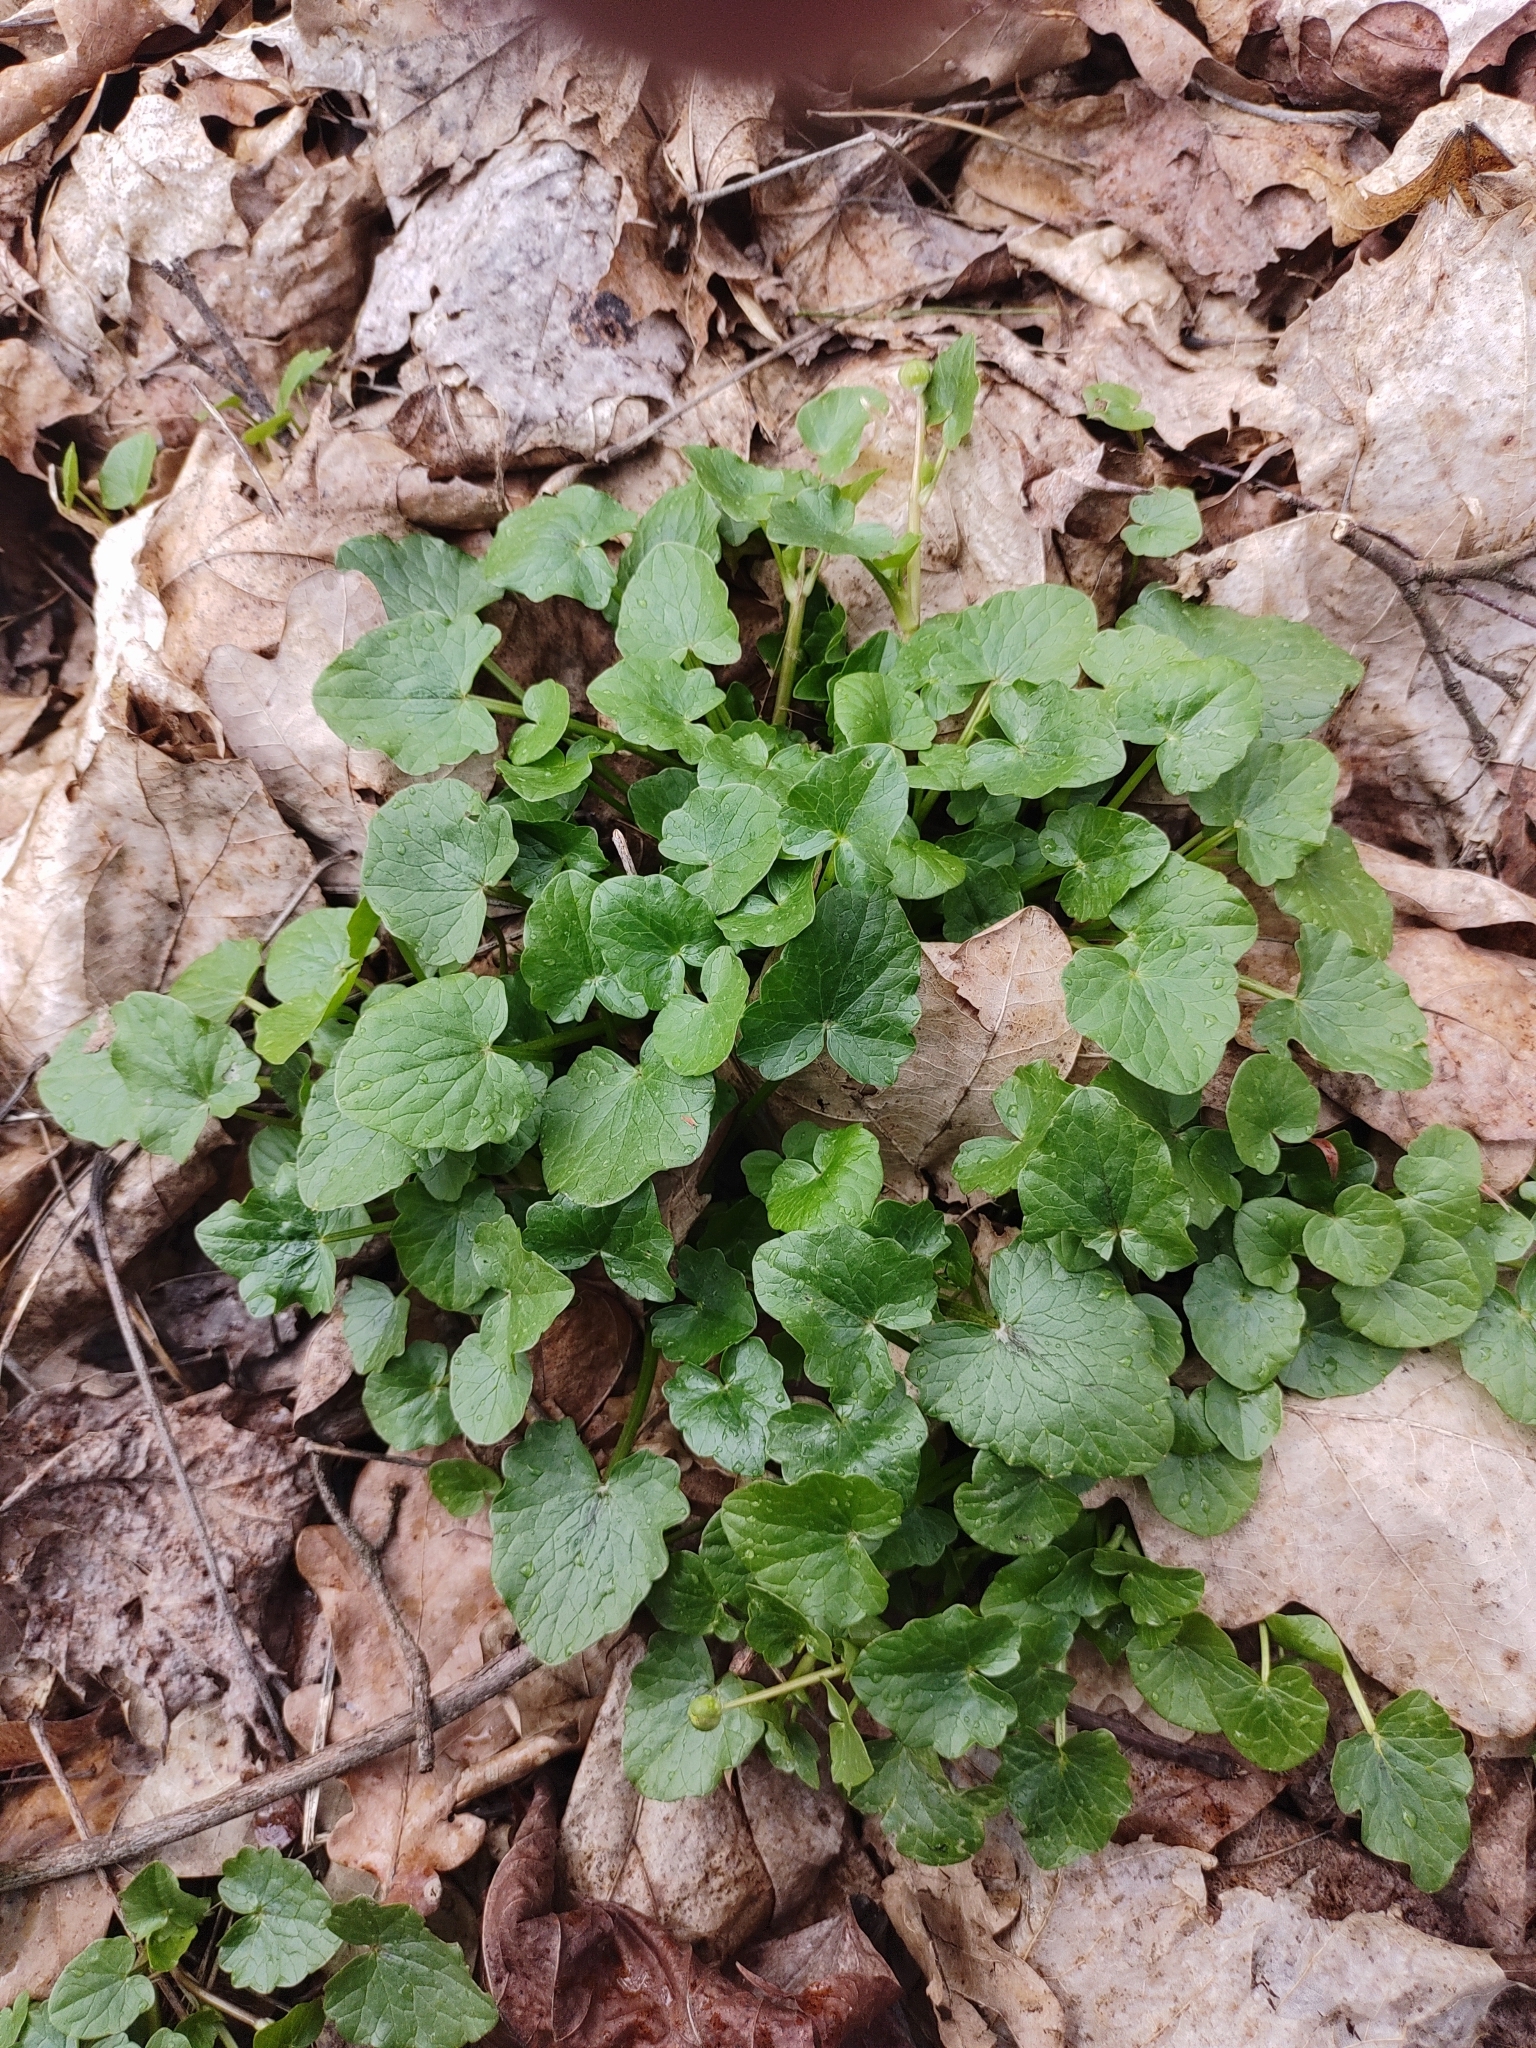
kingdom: Plantae
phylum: Tracheophyta
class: Magnoliopsida
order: Ranunculales
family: Ranunculaceae
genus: Ficaria
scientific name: Ficaria verna
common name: Lesser celandine
